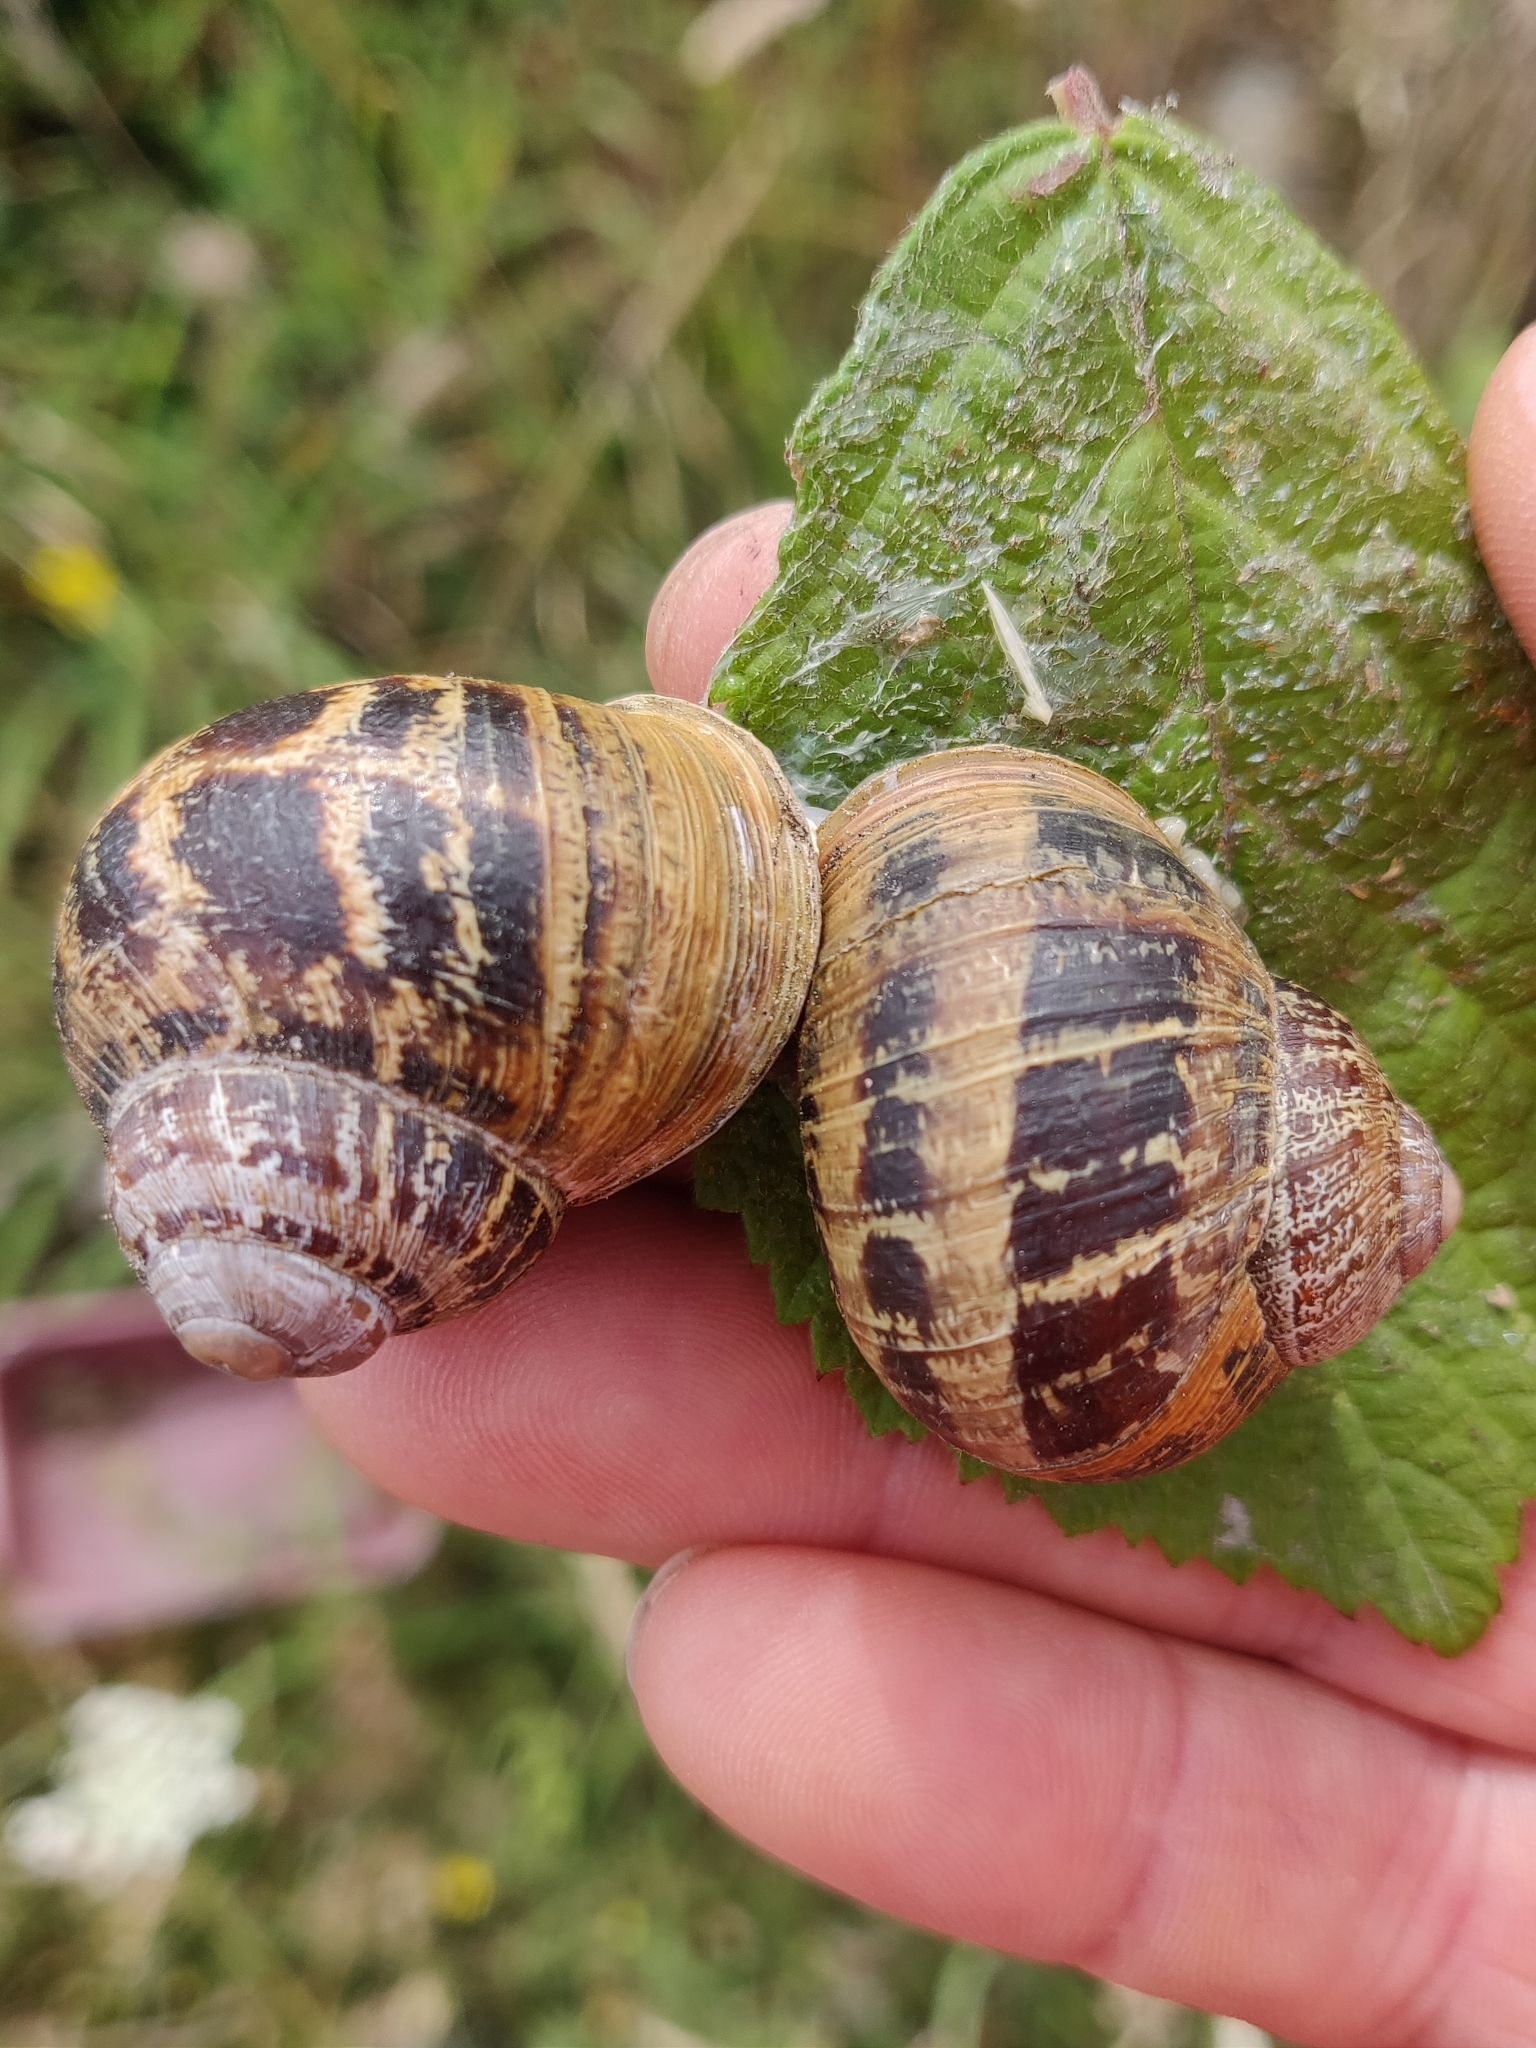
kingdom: Animalia
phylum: Mollusca
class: Gastropoda
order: Stylommatophora
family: Helicidae
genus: Cornu
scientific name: Cornu aspersum
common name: Brown garden snail
